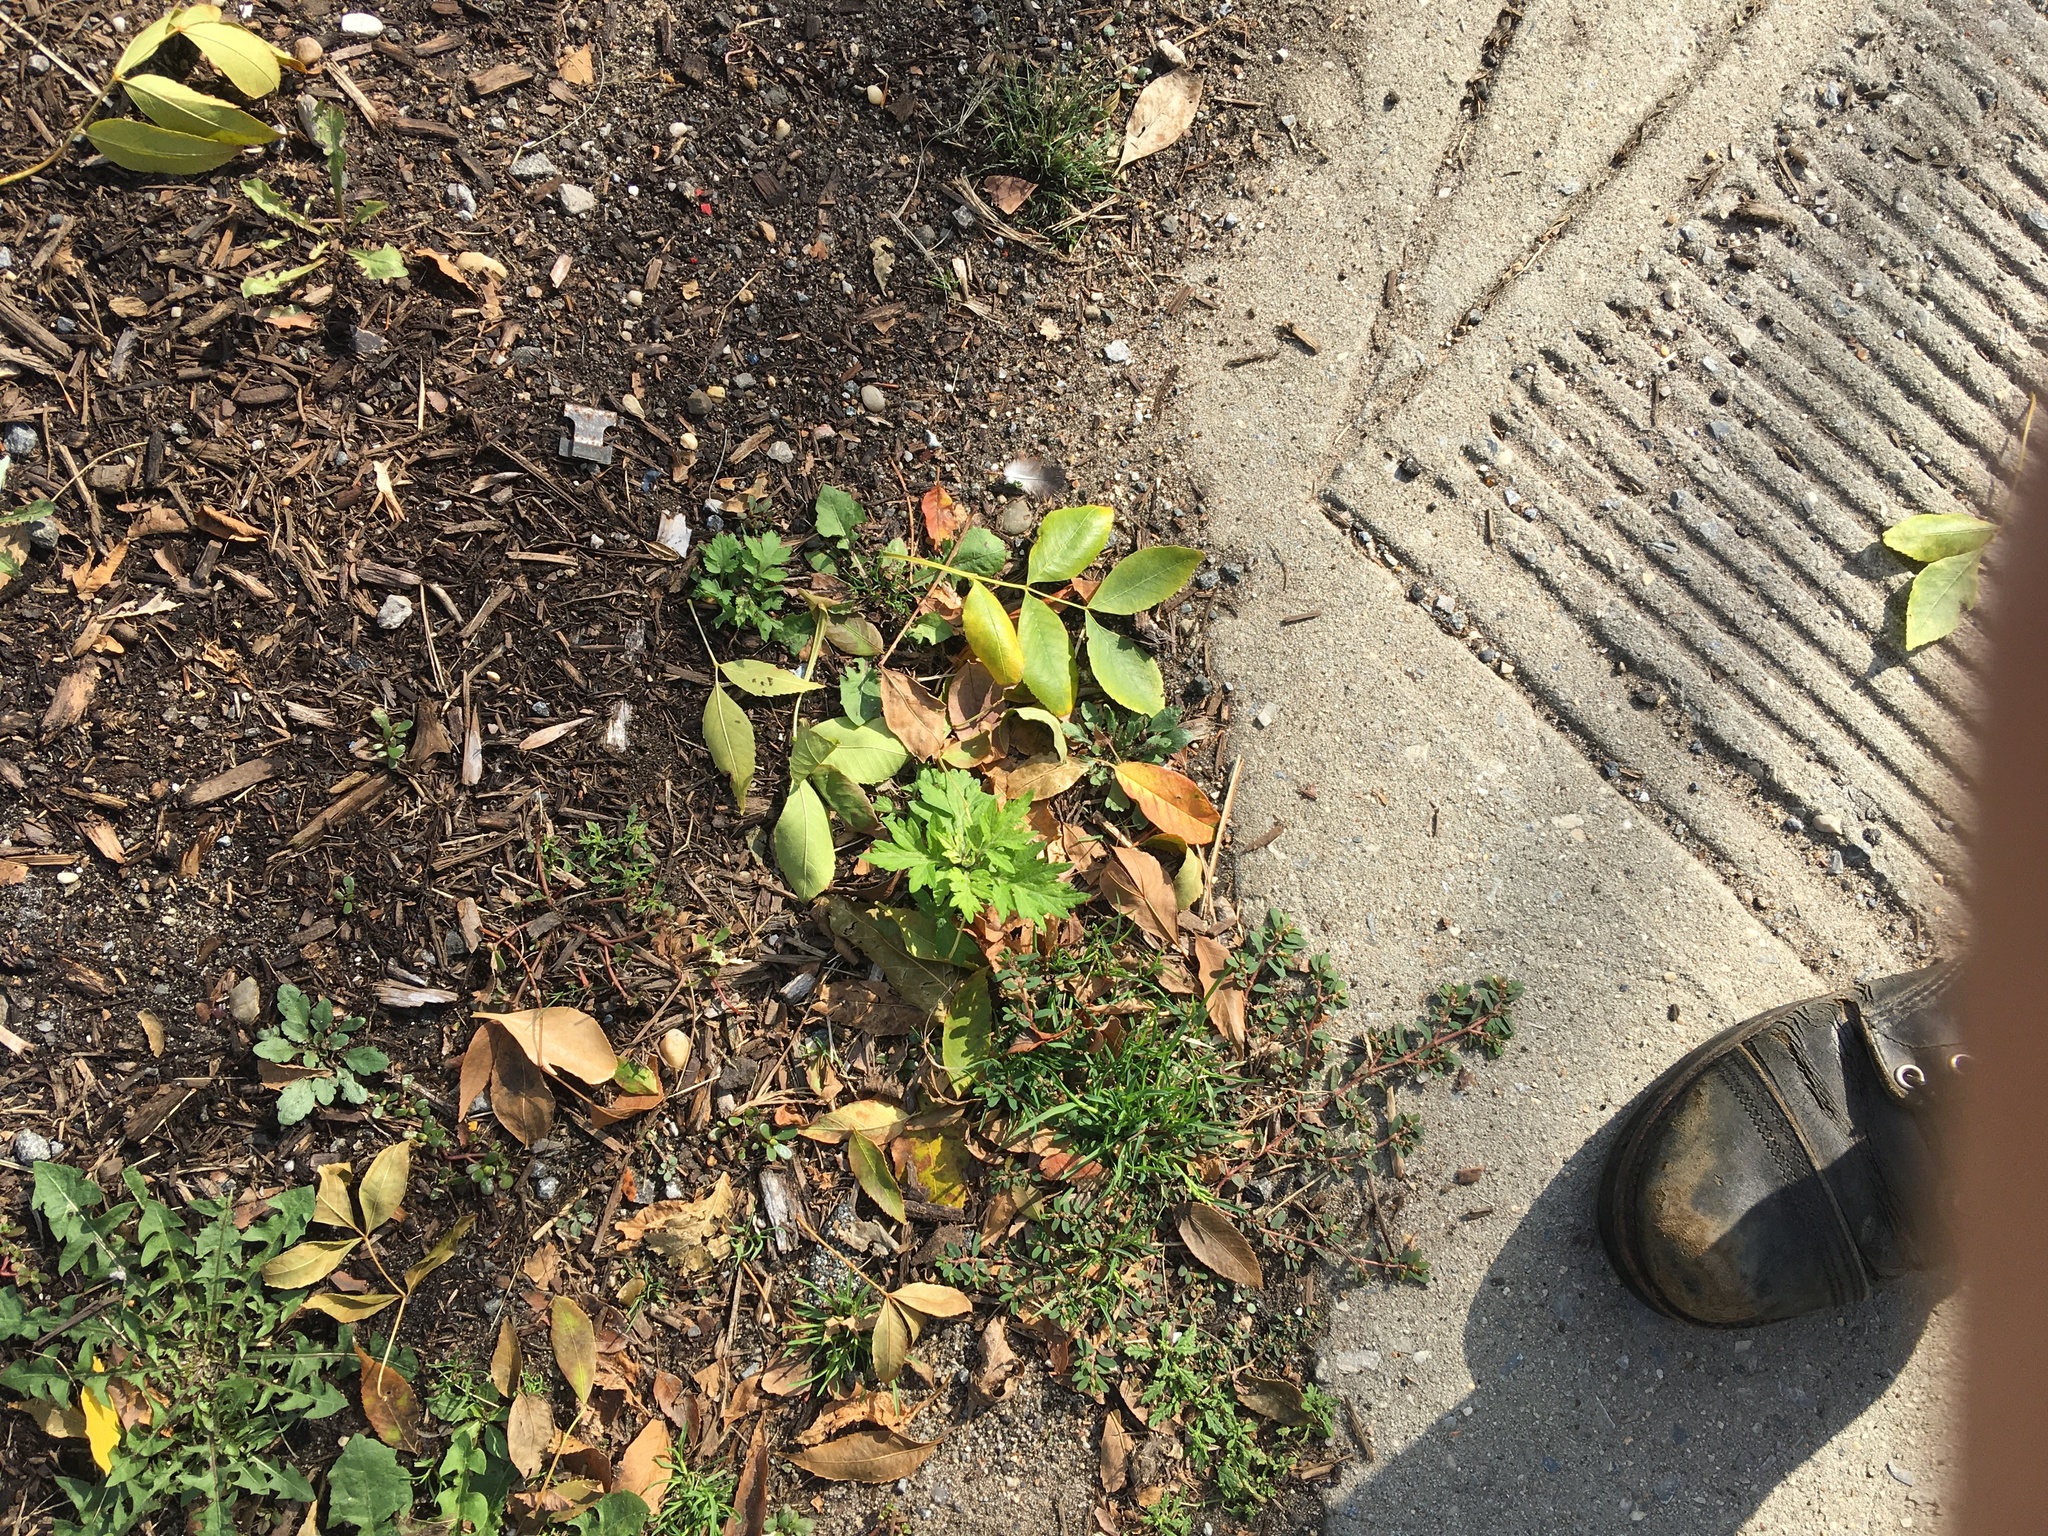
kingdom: Plantae
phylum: Tracheophyta
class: Magnoliopsida
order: Asterales
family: Asteraceae
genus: Artemisia
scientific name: Artemisia vulgaris
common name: Mugwort
